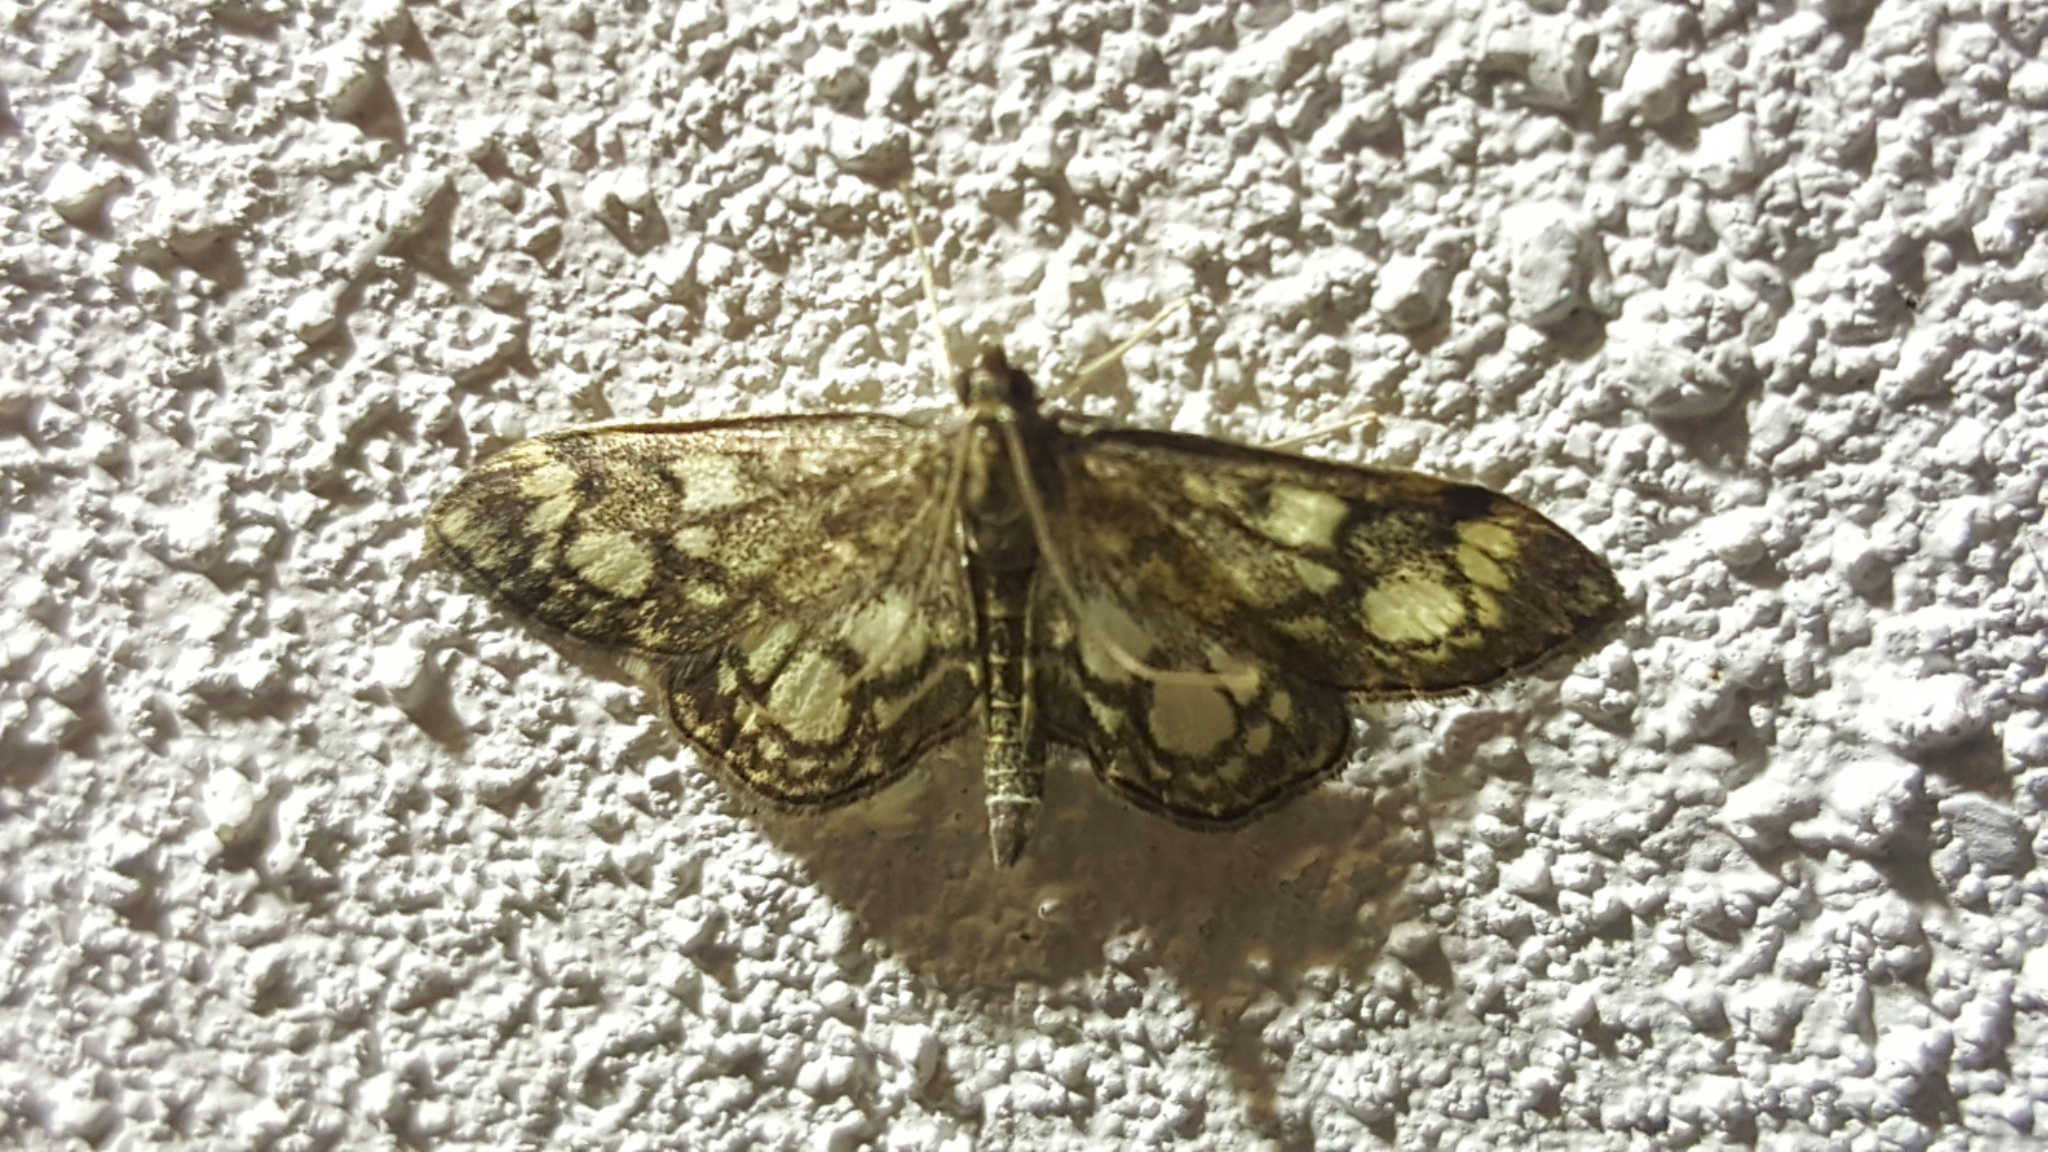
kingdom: Animalia
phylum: Arthropoda
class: Insecta
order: Lepidoptera
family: Crambidae
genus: Anania
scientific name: Anania coronata
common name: Elder pearl
